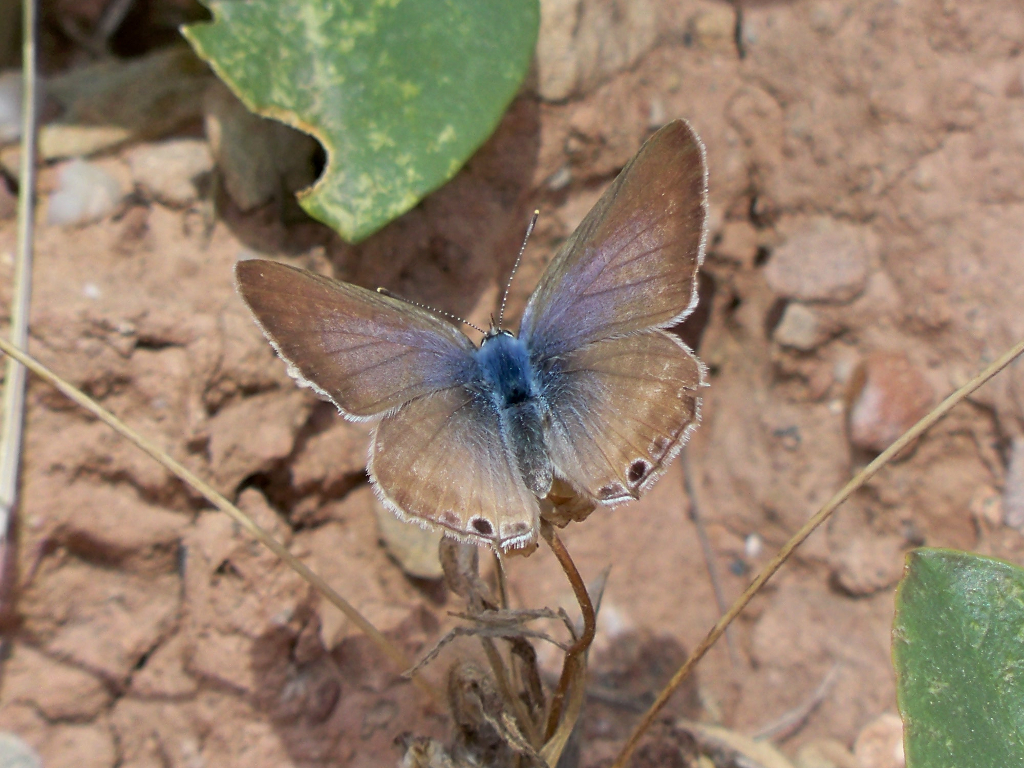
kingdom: Animalia
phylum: Arthropoda
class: Insecta
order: Lepidoptera
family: Lycaenidae
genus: Lampides
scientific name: Lampides boeticus
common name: Long-tailed blue
